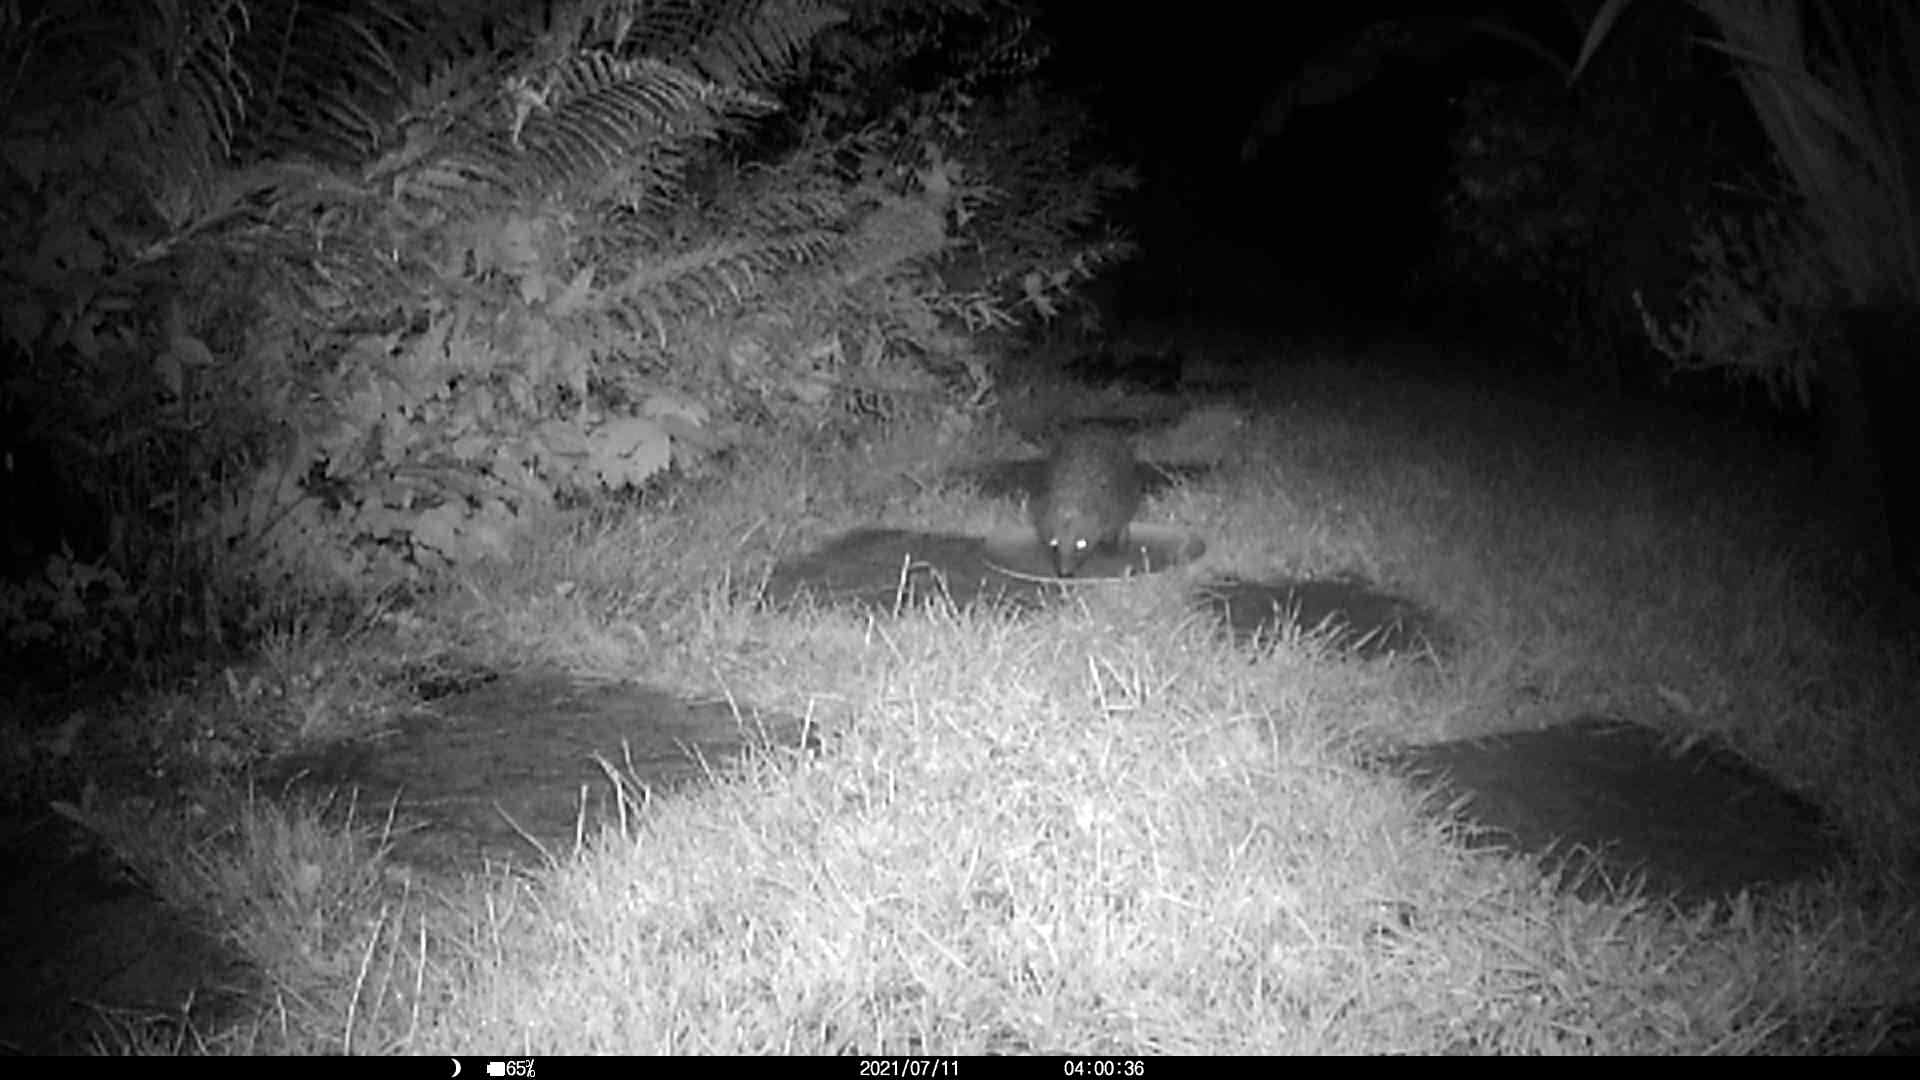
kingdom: Animalia
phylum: Chordata
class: Mammalia
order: Erinaceomorpha
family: Erinaceidae
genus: Erinaceus
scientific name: Erinaceus europaeus
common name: West european hedgehog
